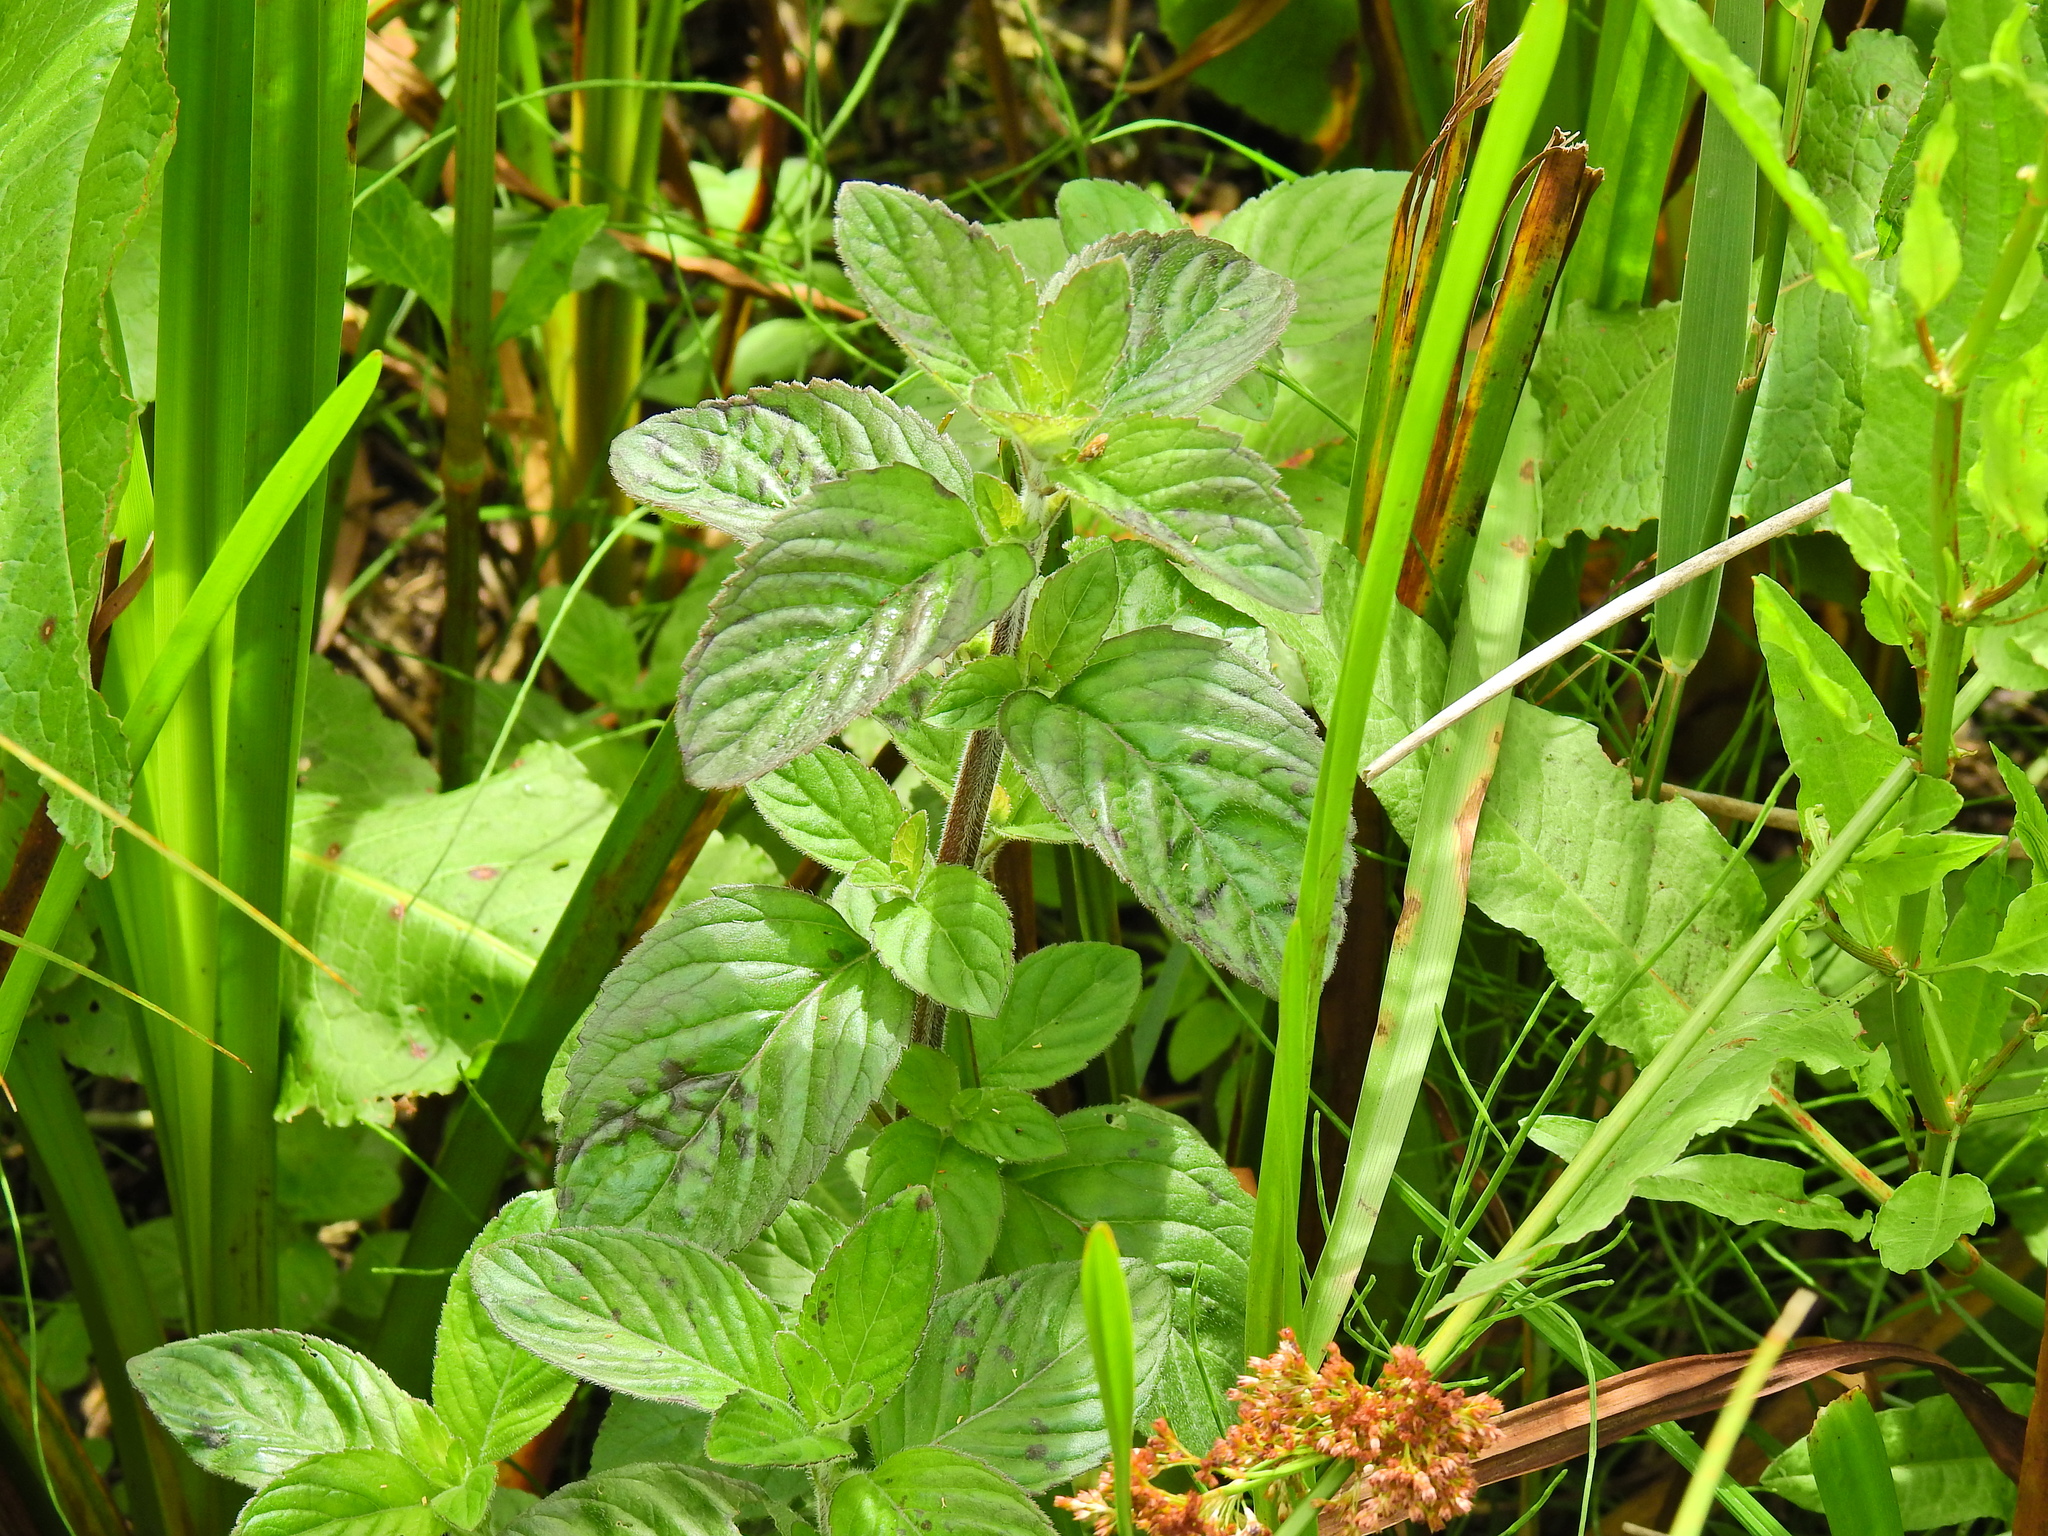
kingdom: Plantae
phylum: Tracheophyta
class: Magnoliopsida
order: Lamiales
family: Lamiaceae
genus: Mentha
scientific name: Mentha aquatica
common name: Water mint
